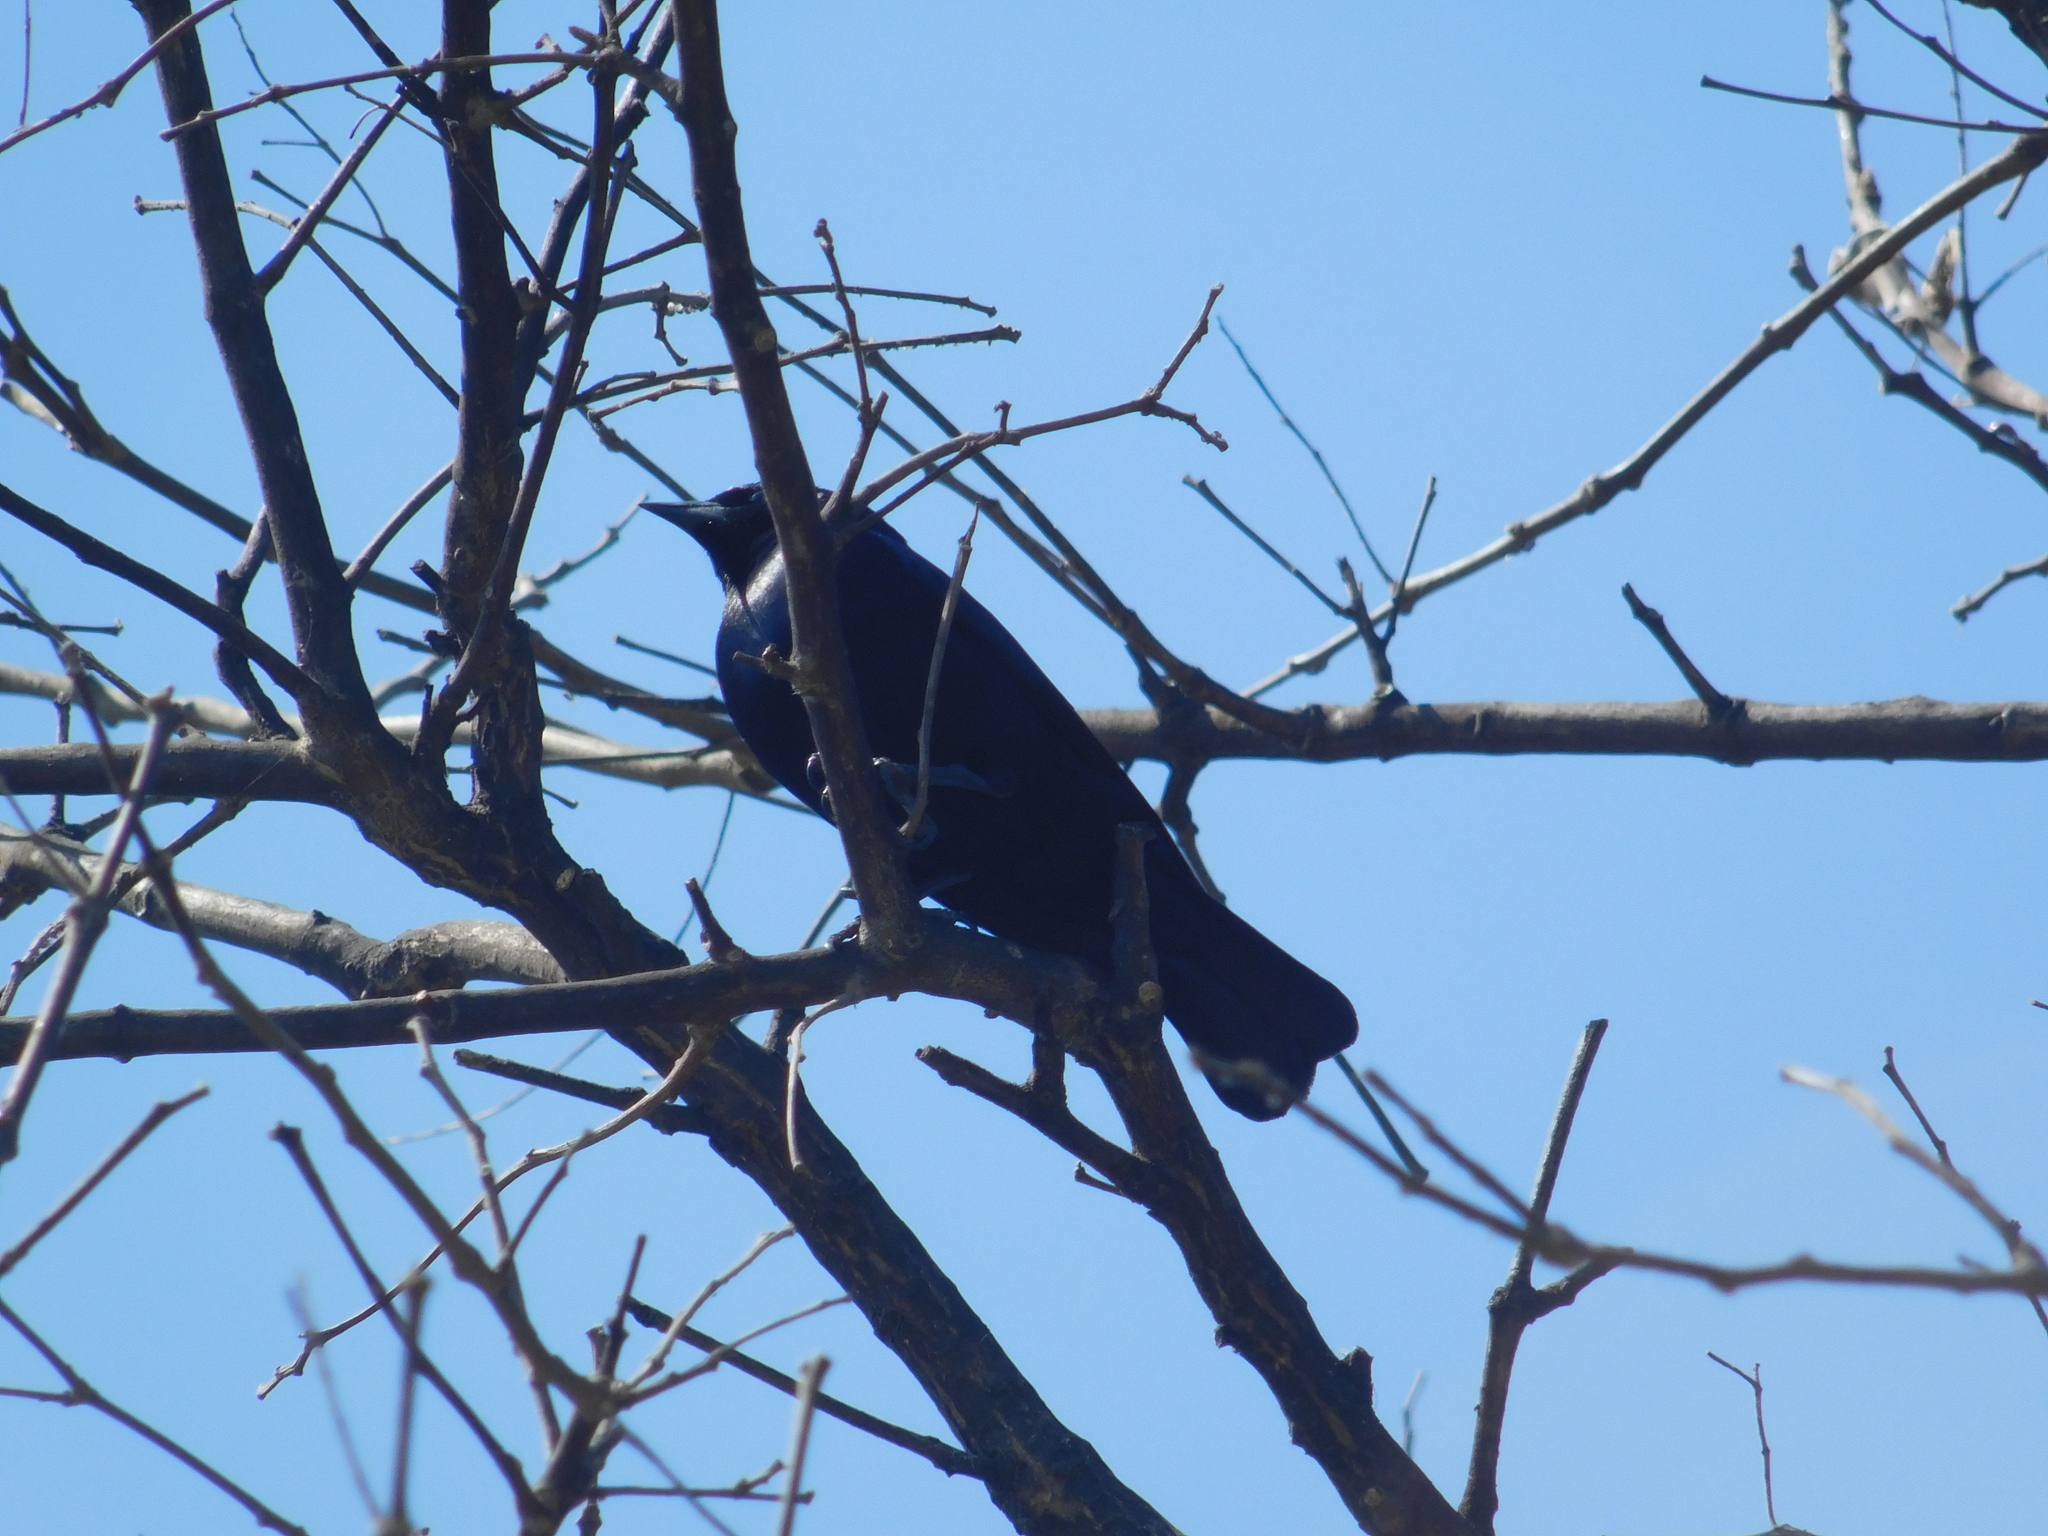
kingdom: Animalia
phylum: Chordata
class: Aves
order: Passeriformes
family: Icteridae
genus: Molothrus
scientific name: Molothrus bonariensis
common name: Shiny cowbird
